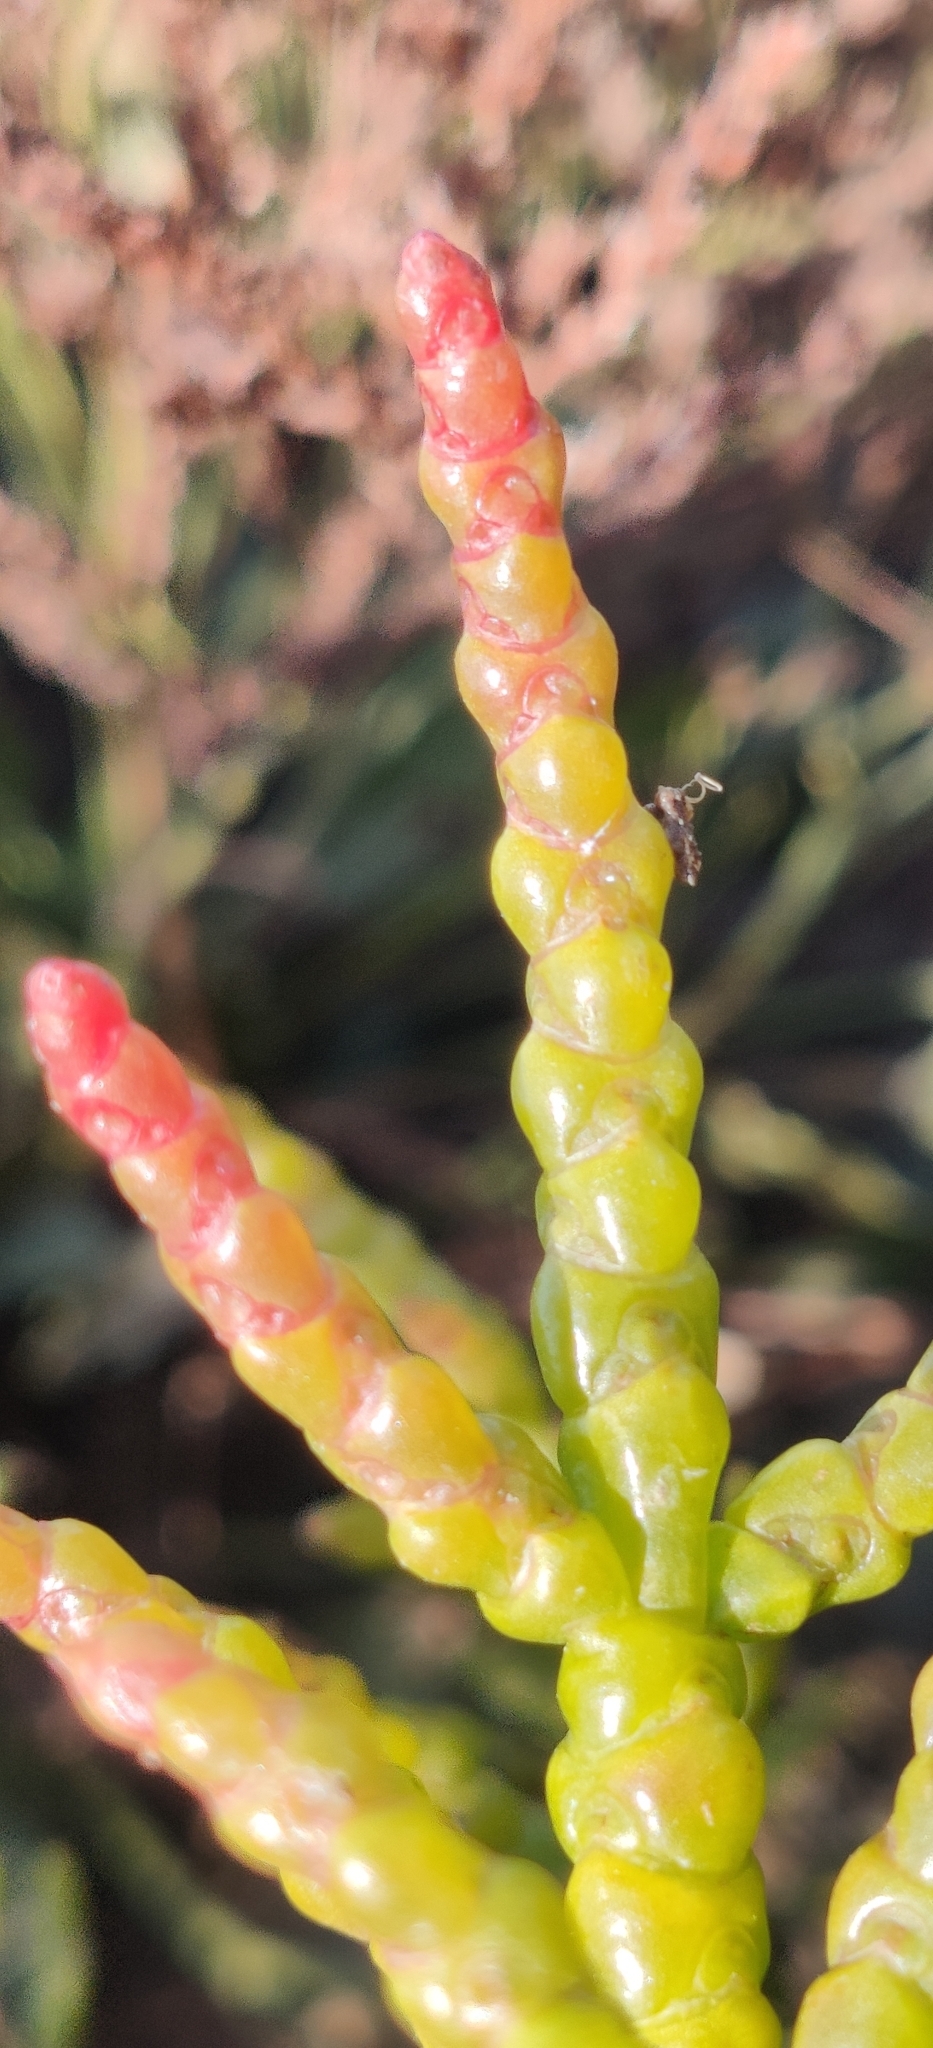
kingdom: Plantae
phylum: Tracheophyta
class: Magnoliopsida
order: Caryophyllales
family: Amaranthaceae
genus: Salicornia
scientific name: Salicornia europaea
